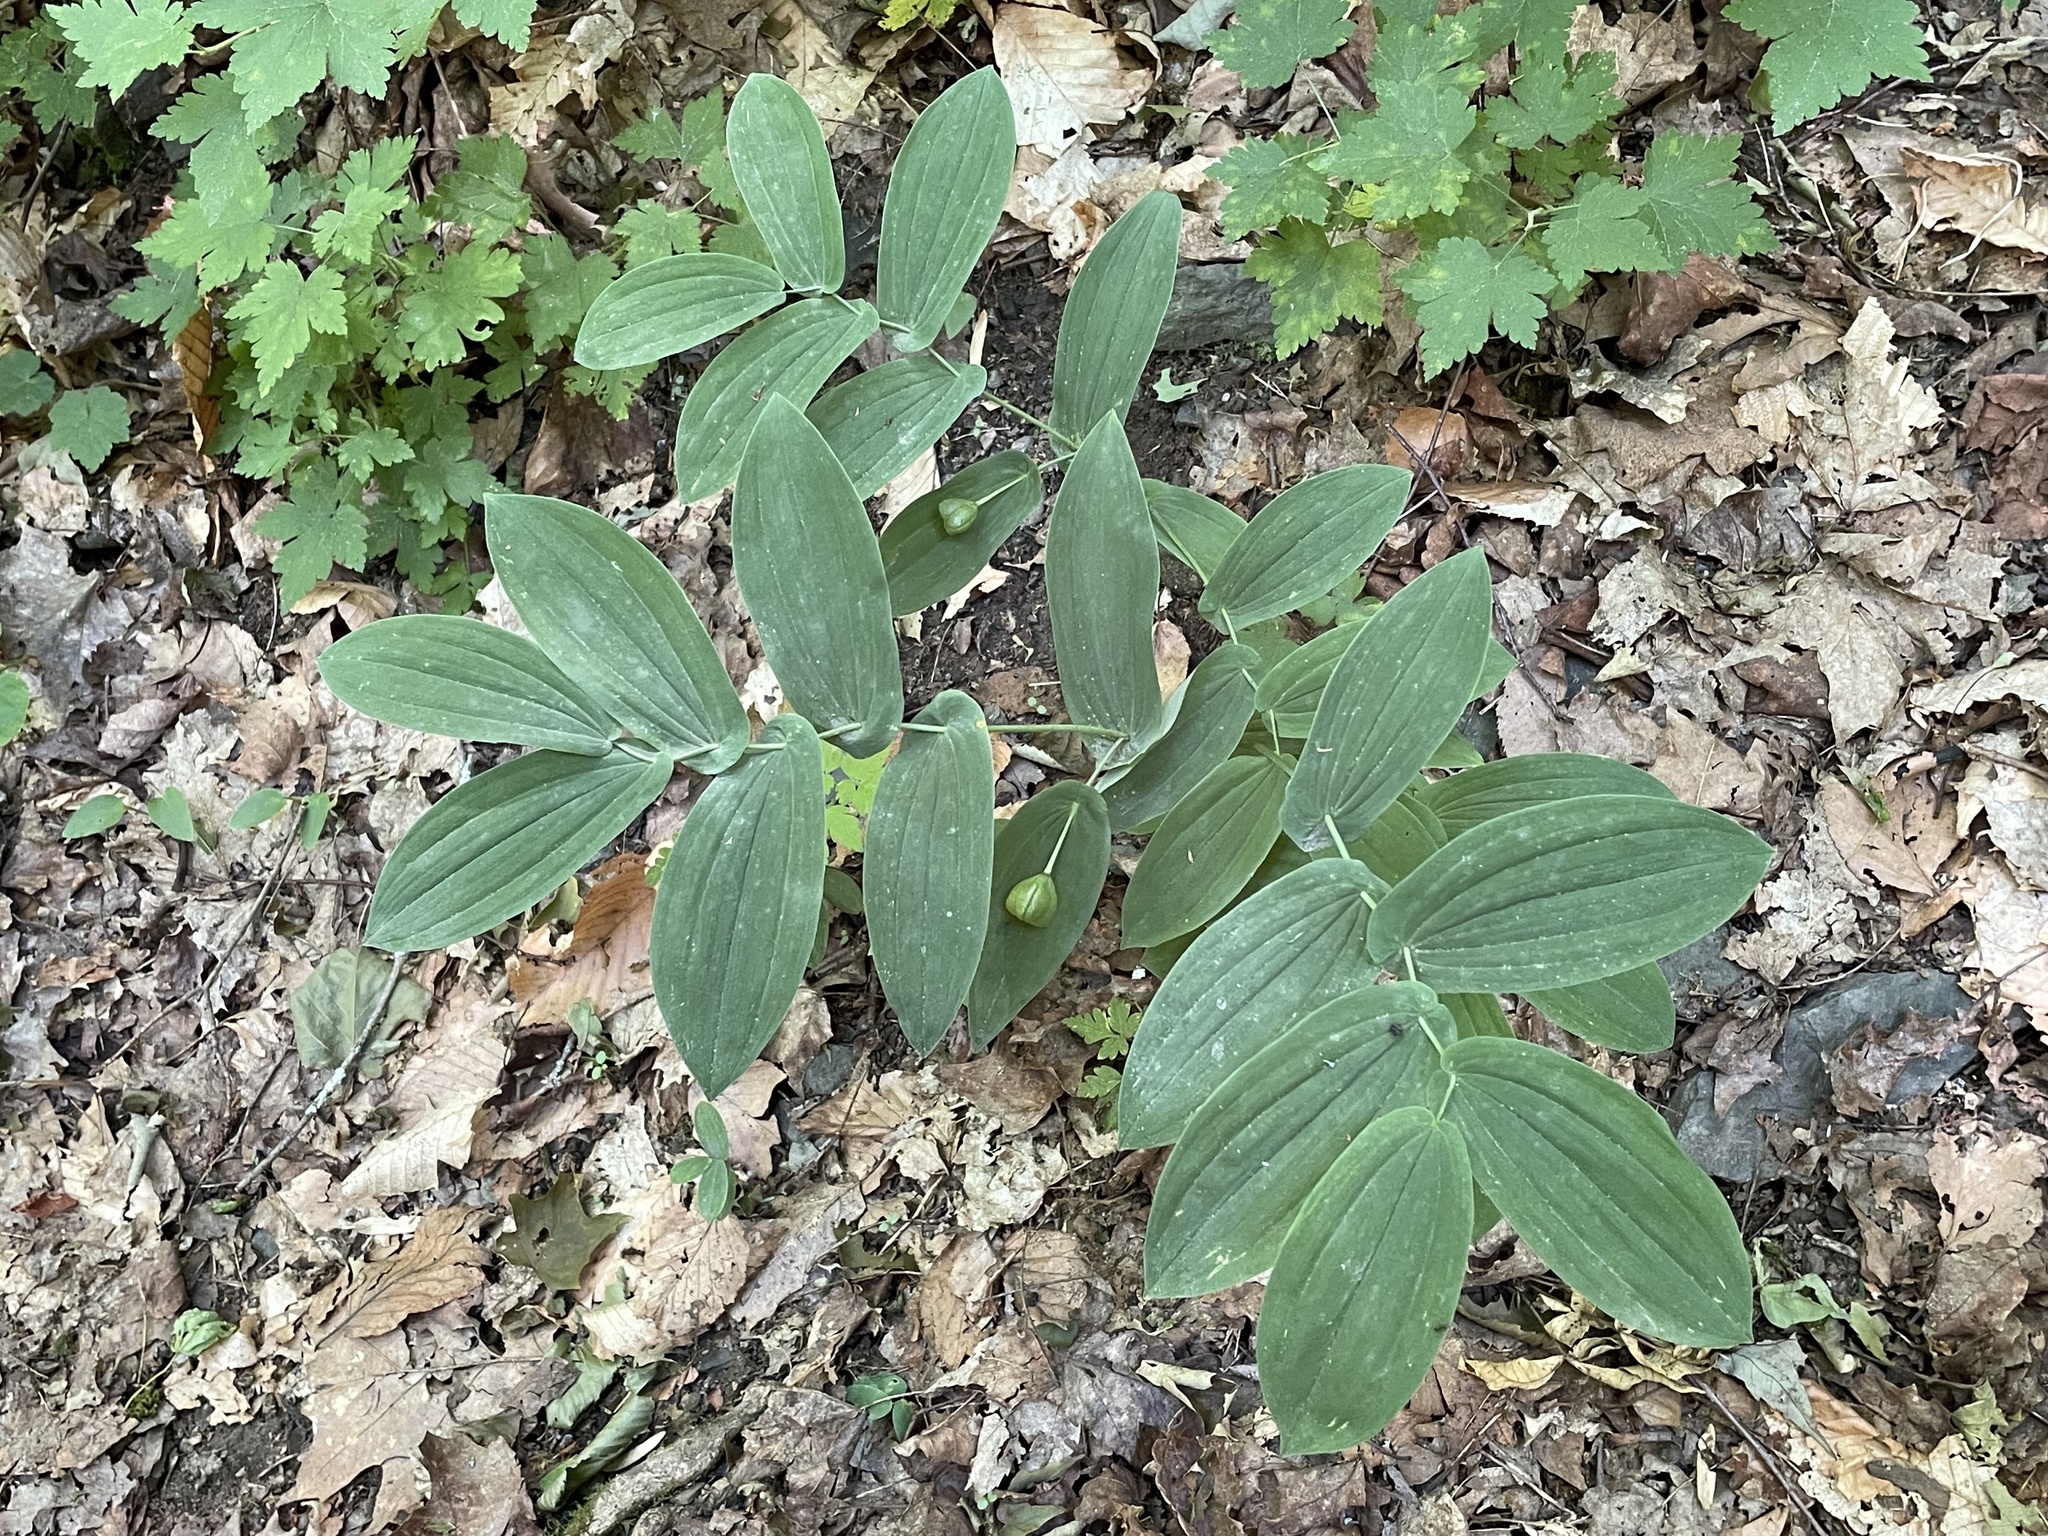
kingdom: Plantae
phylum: Tracheophyta
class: Liliopsida
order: Liliales
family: Colchicaceae
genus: Uvularia
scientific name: Uvularia grandiflora
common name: Bellwort
